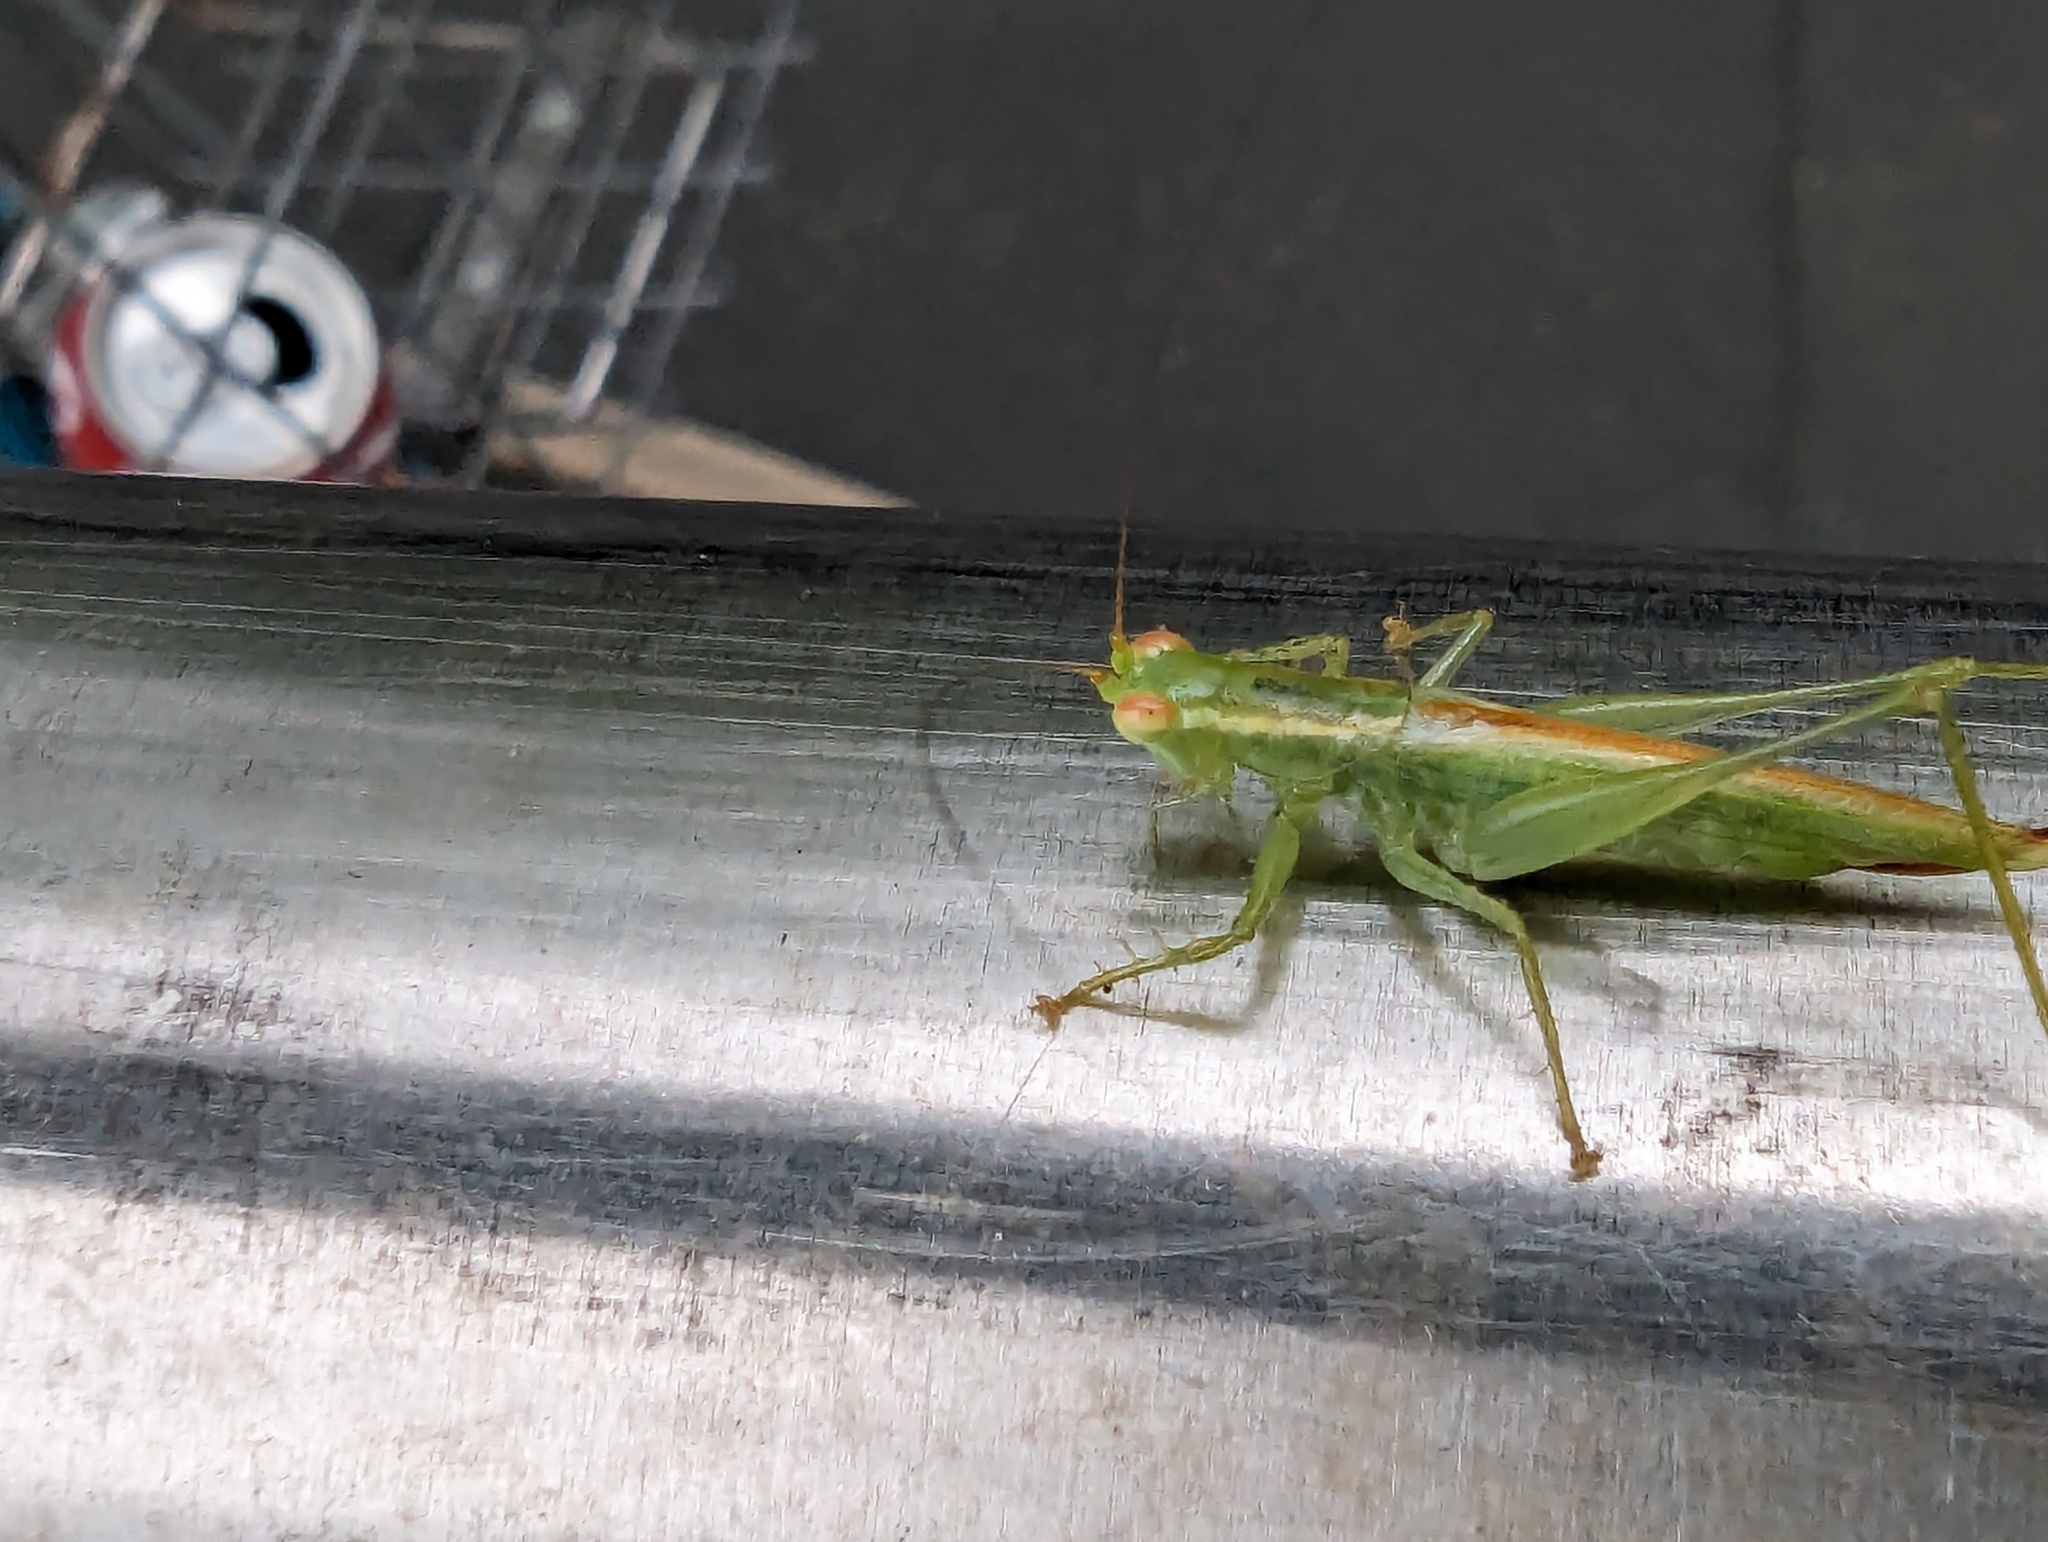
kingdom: Animalia
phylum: Arthropoda
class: Insecta
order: Orthoptera
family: Tettigoniidae
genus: Austrophlugis
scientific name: Austrophlugis debaari
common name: Debaar's swayer
